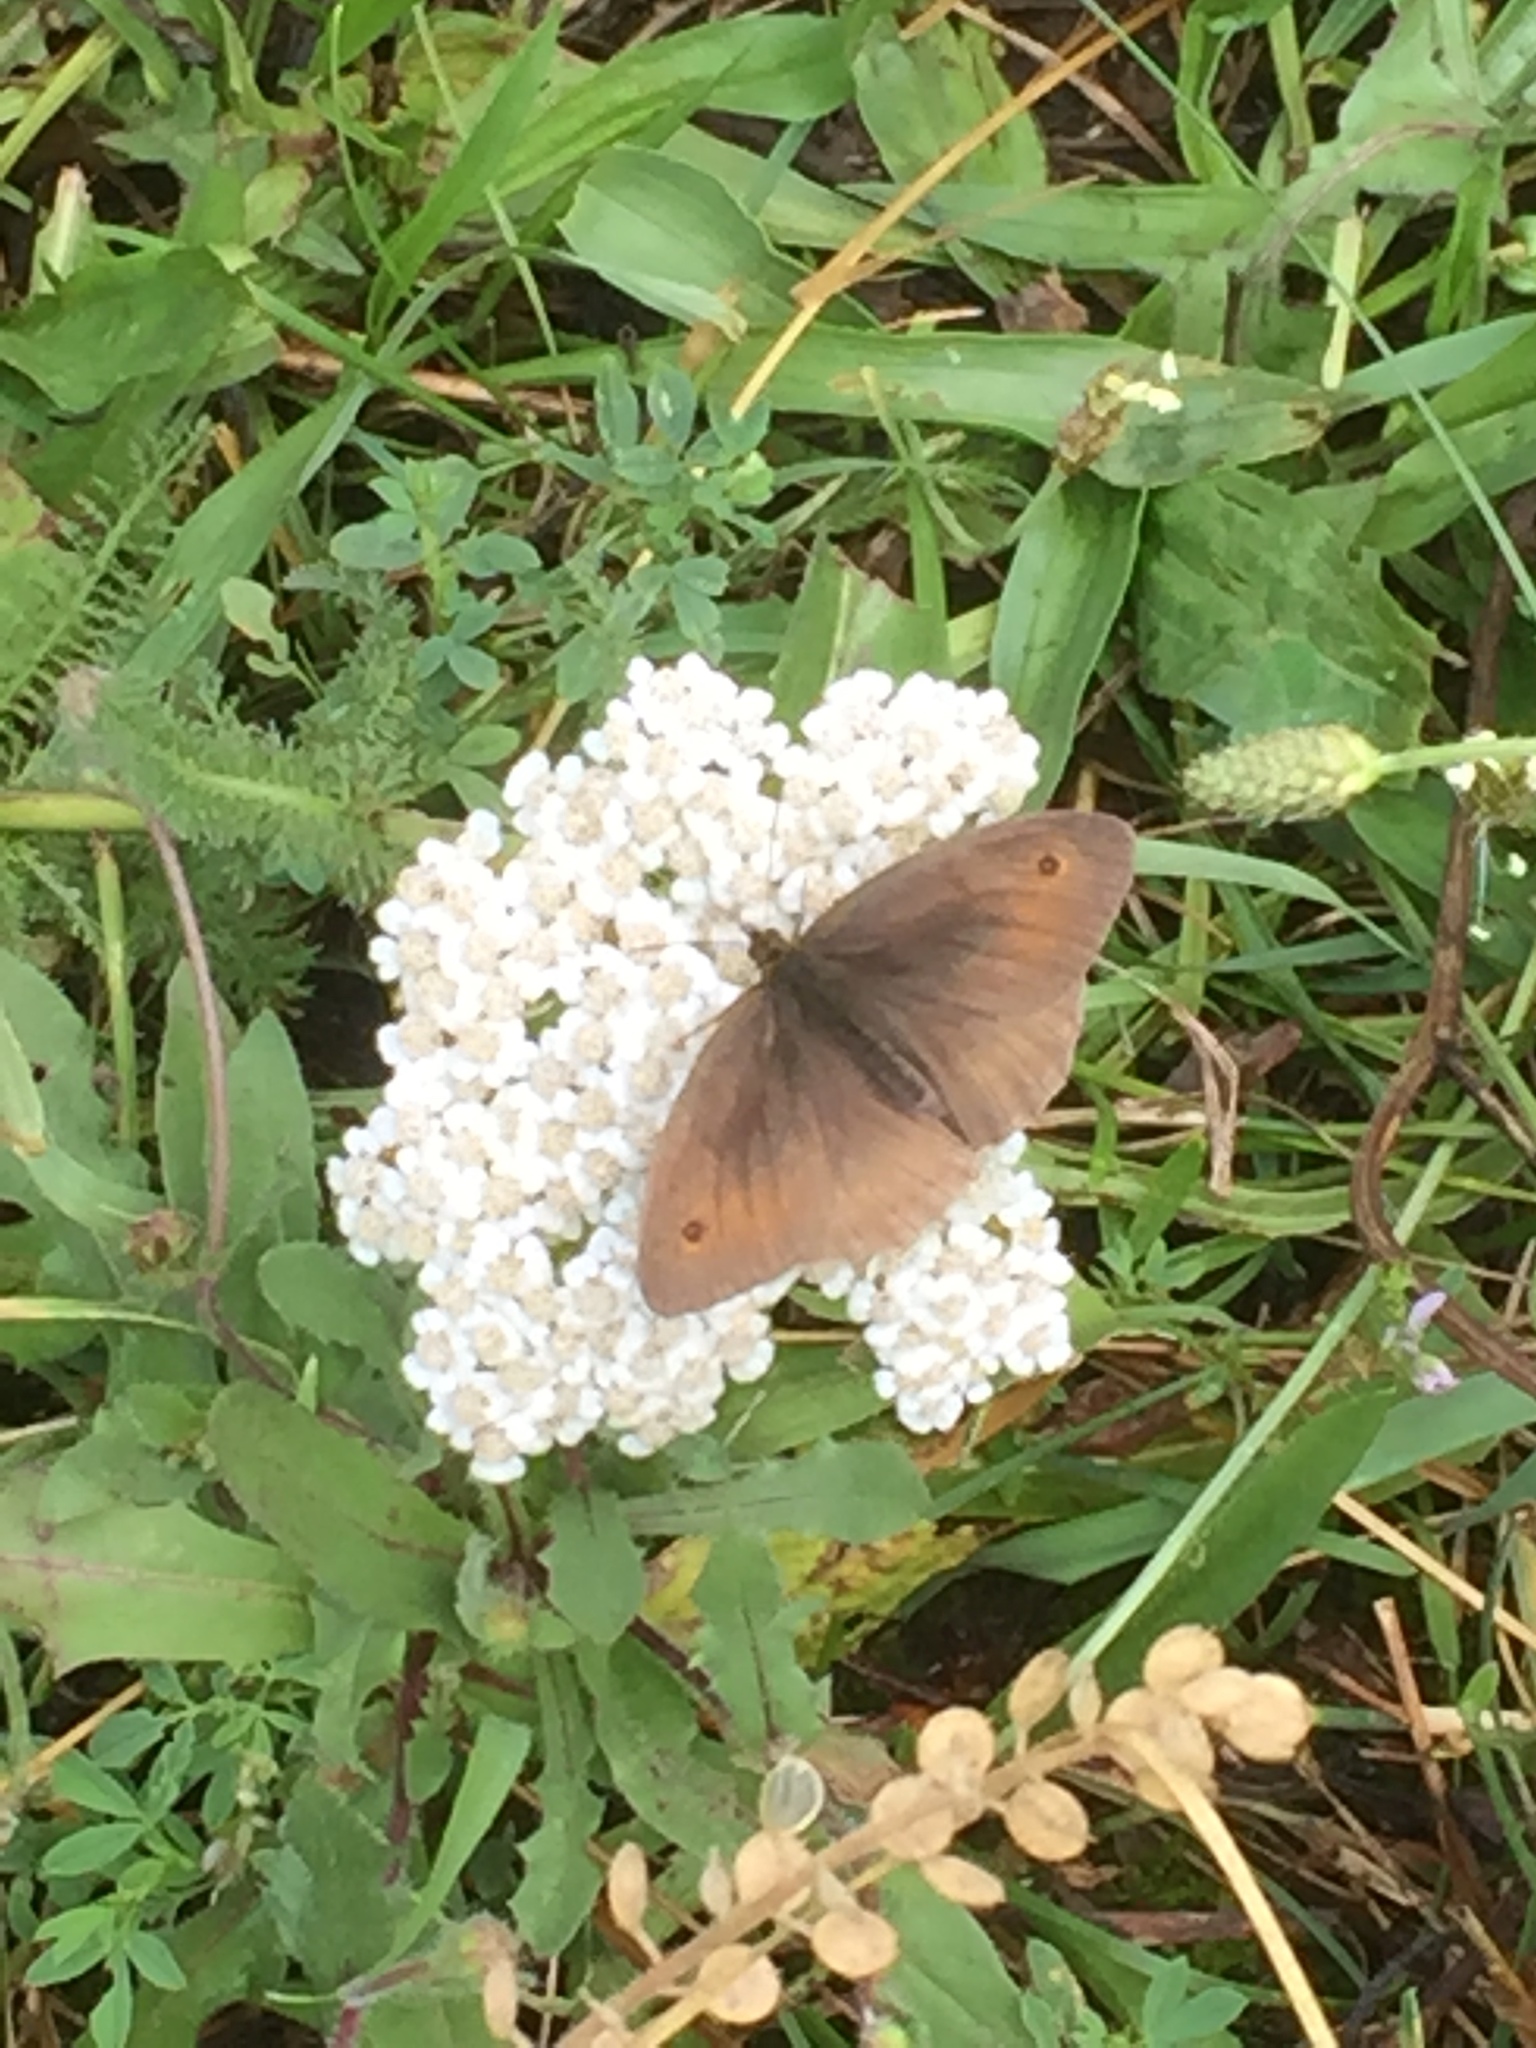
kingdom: Animalia
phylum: Arthropoda
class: Insecta
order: Lepidoptera
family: Nymphalidae
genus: Maniola
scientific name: Maniola jurtina
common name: Meadow brown
